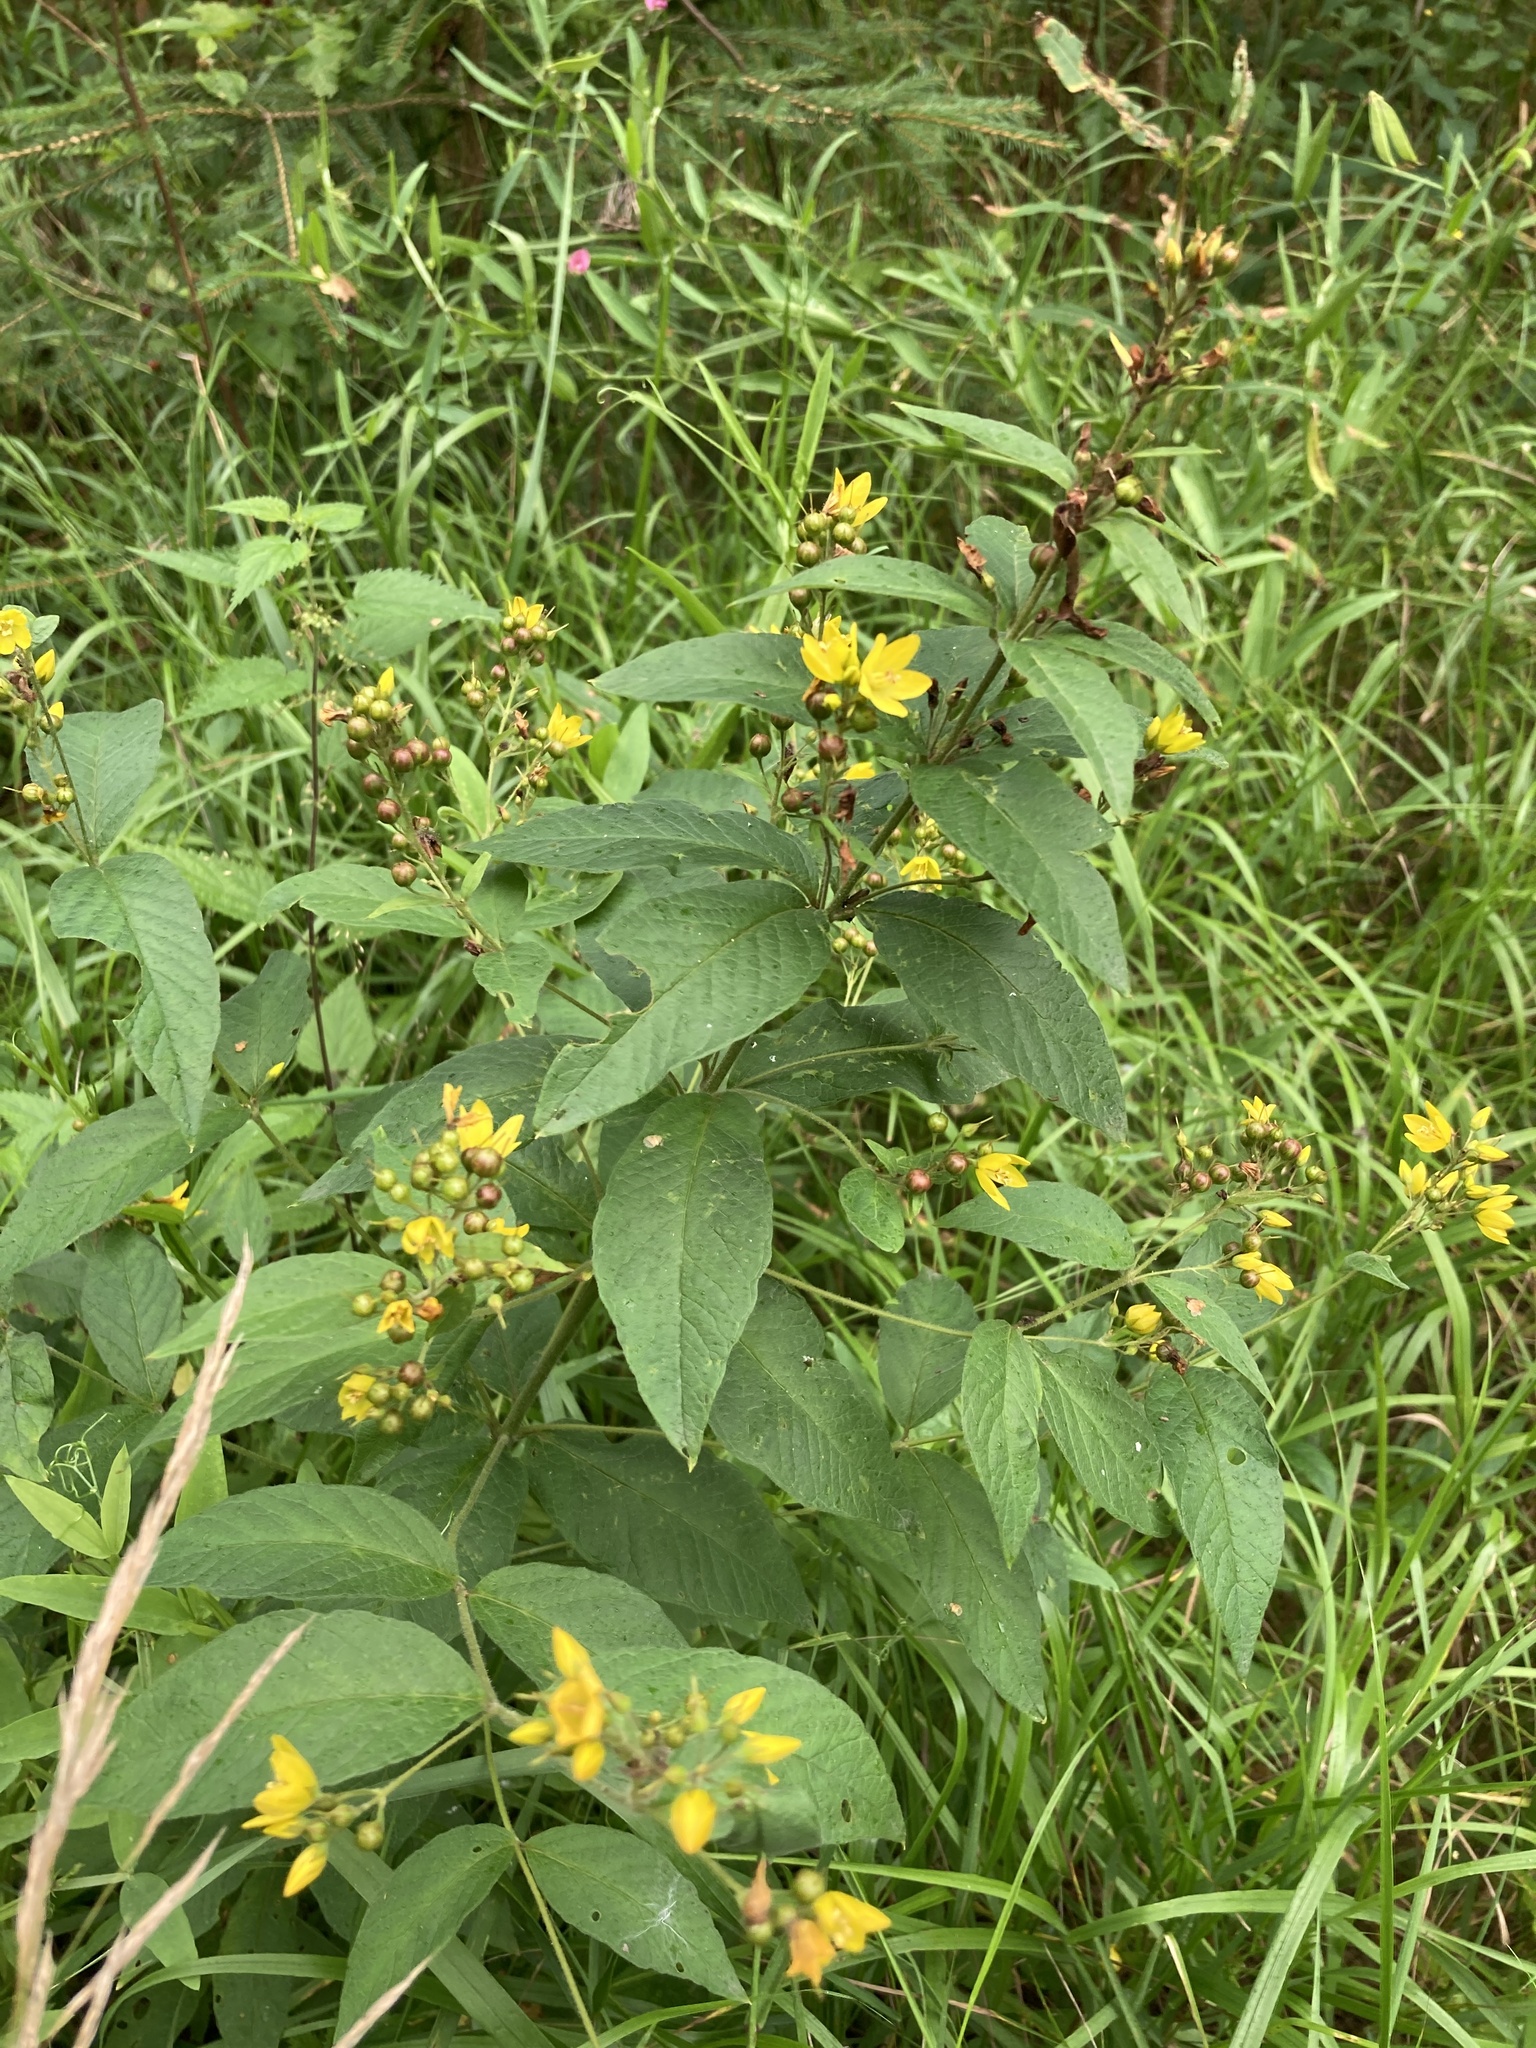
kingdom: Plantae
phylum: Tracheophyta
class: Magnoliopsida
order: Ericales
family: Primulaceae
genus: Lysimachia
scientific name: Lysimachia vulgaris
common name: Yellow loosestrife
